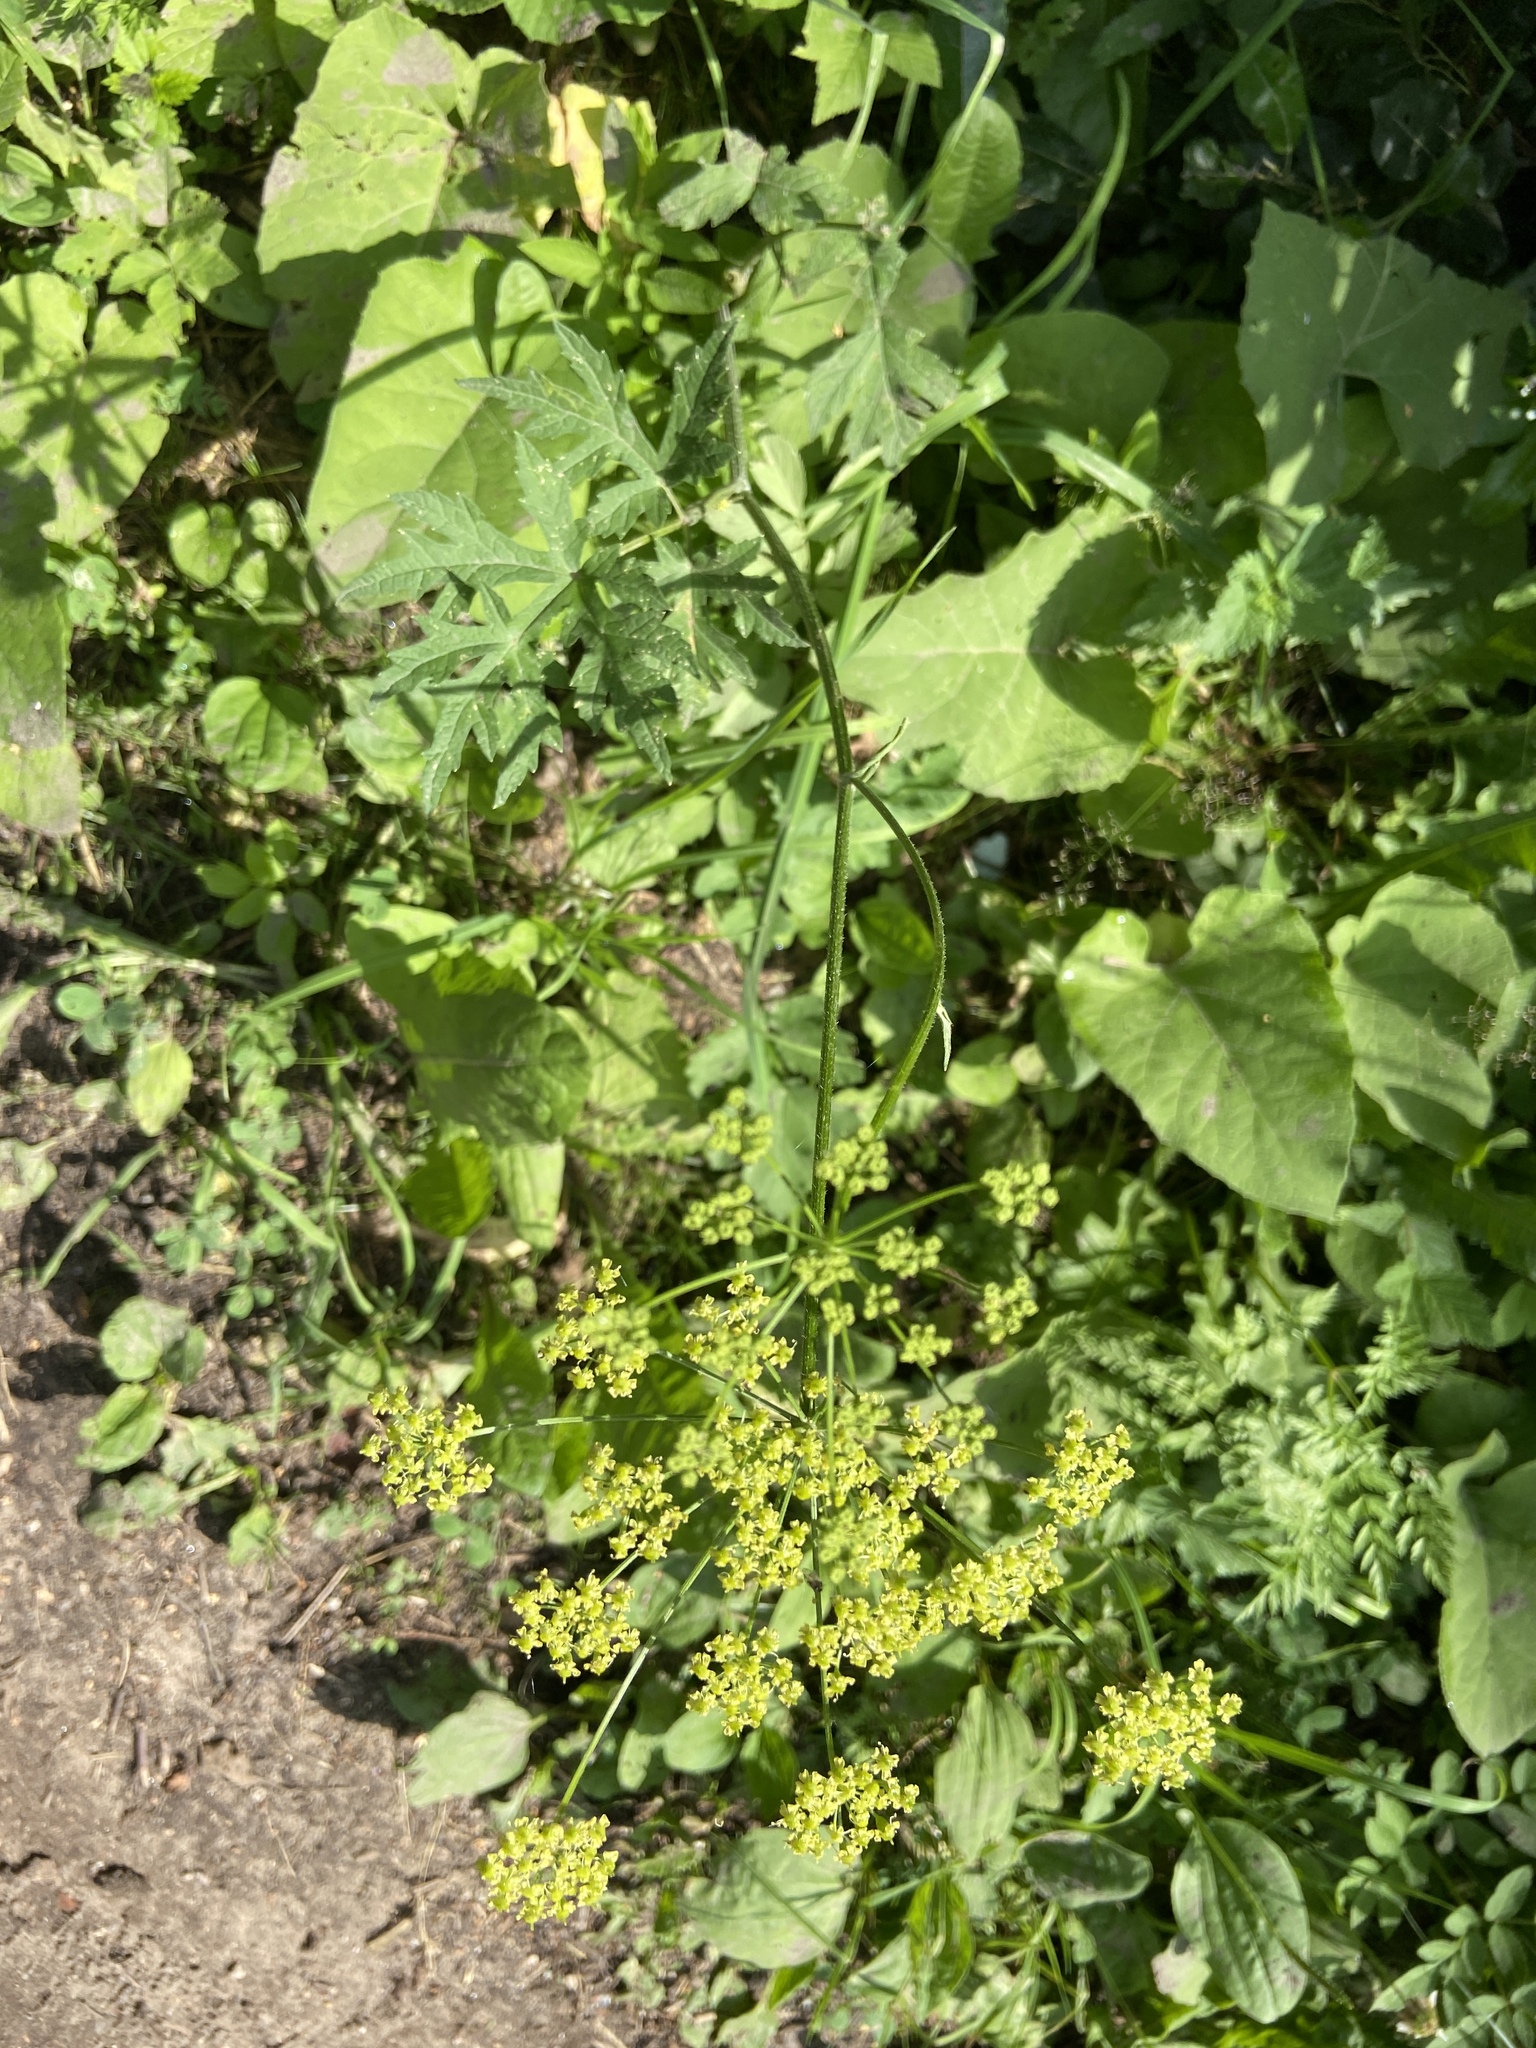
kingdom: Plantae
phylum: Tracheophyta
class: Magnoliopsida
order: Apiales
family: Apiaceae
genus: Heracleum
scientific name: Heracleum sphondylium
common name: Hogweed
